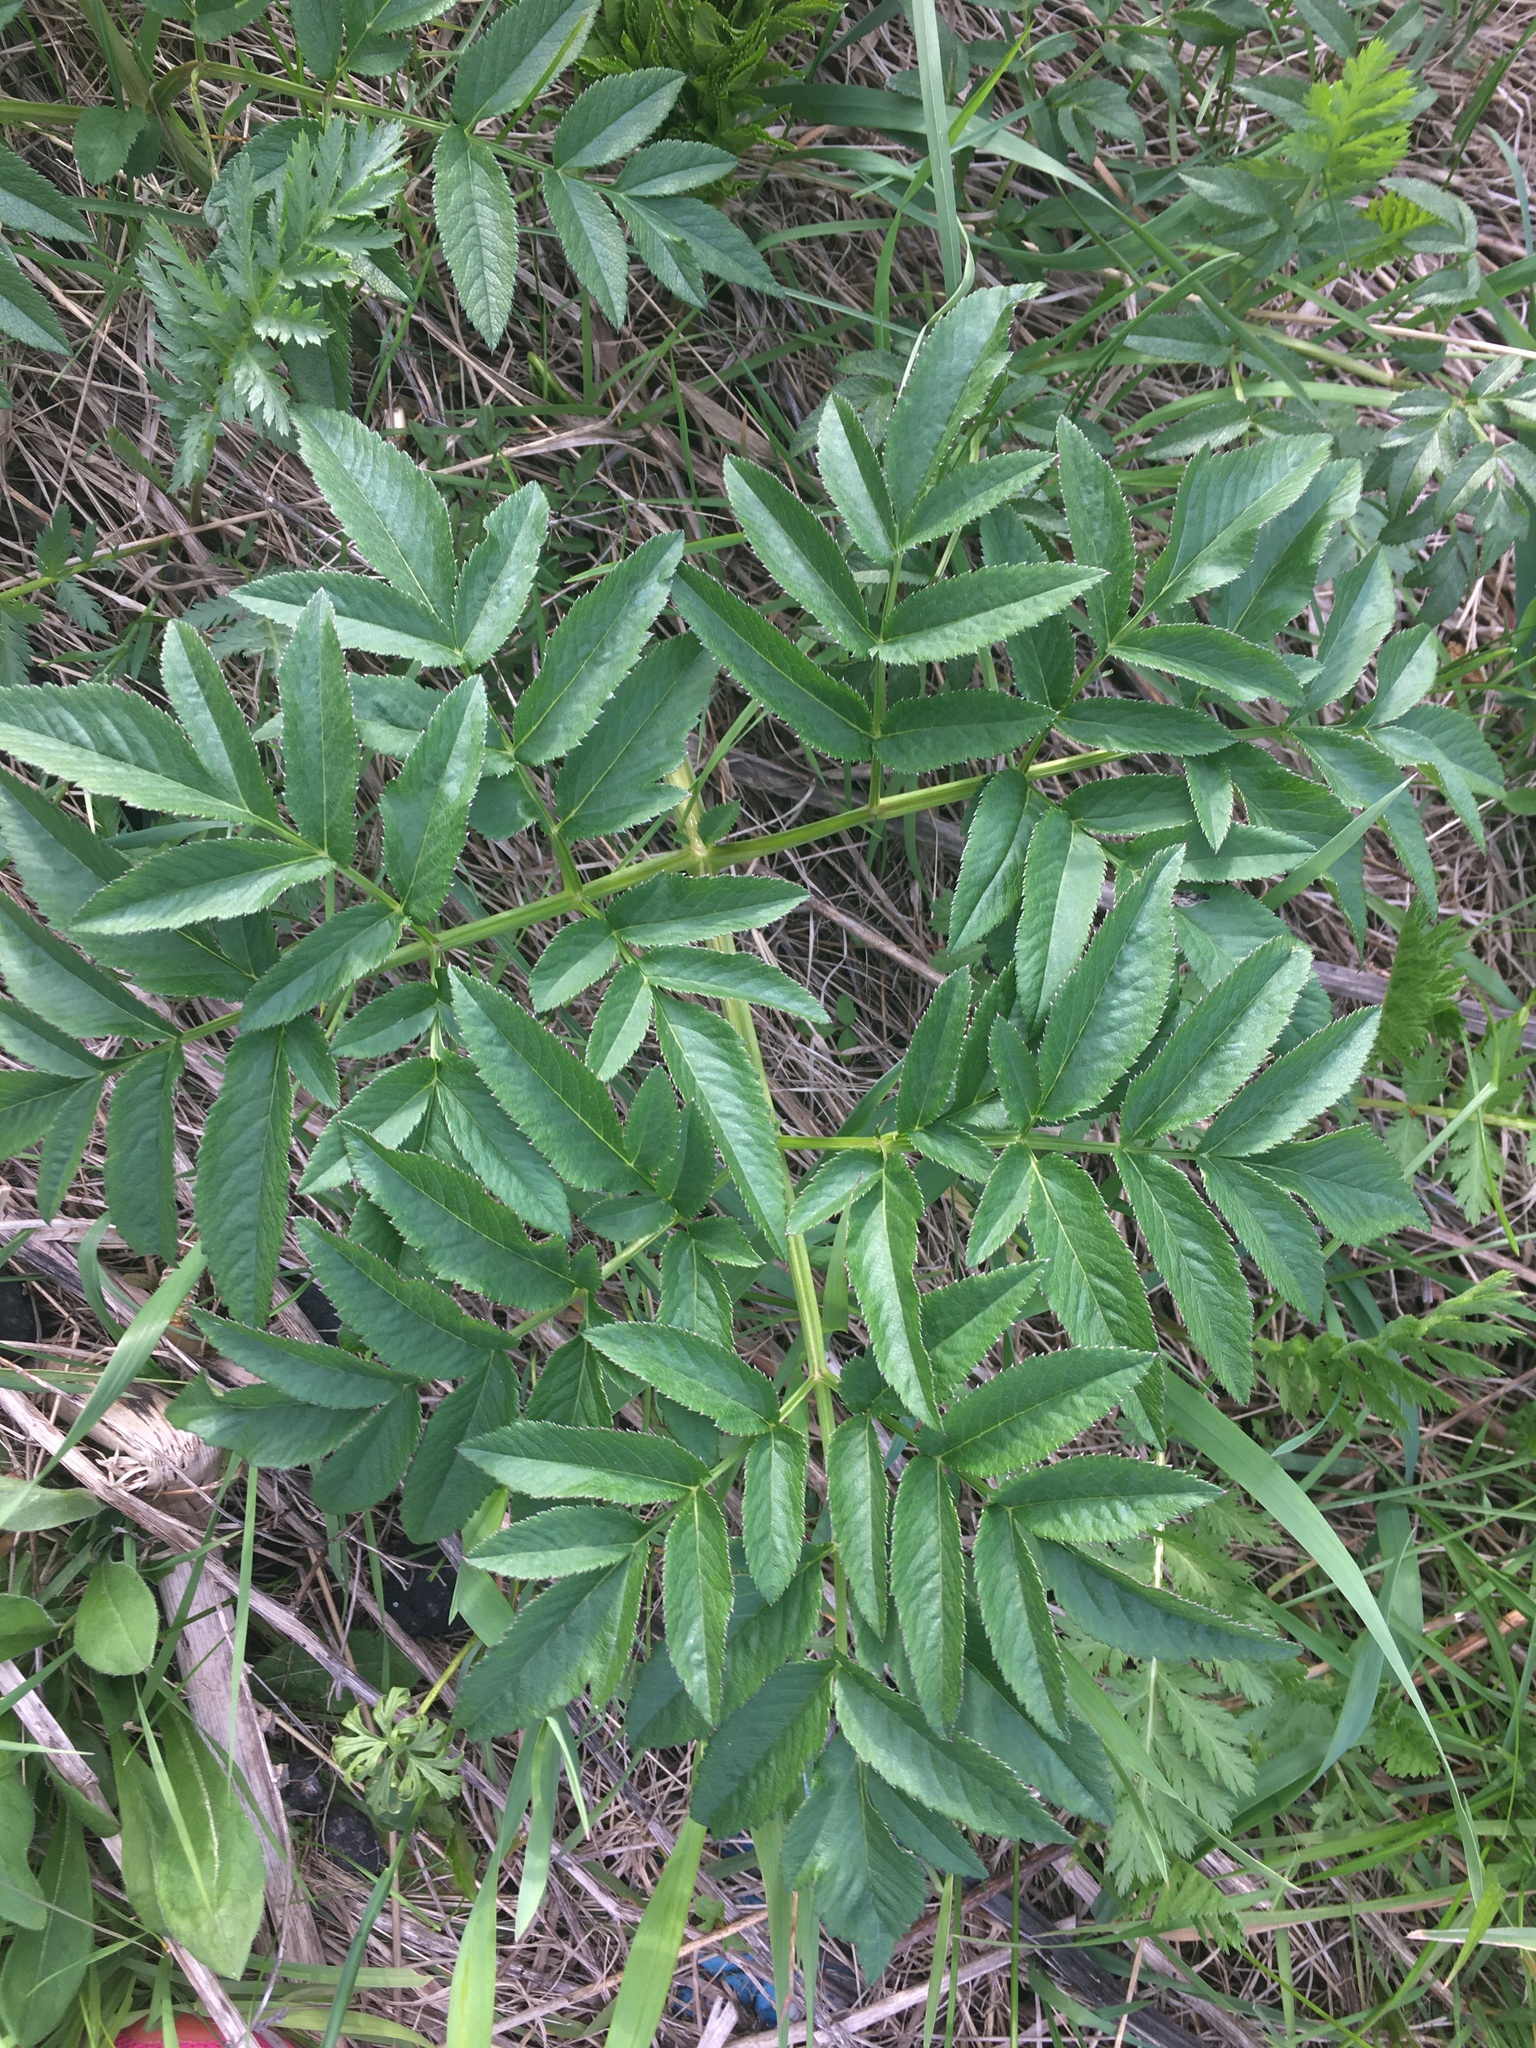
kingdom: Plantae
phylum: Tracheophyta
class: Magnoliopsida
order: Apiales
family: Apiaceae
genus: Angelica
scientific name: Angelica sylvestris
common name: Wild angelica
